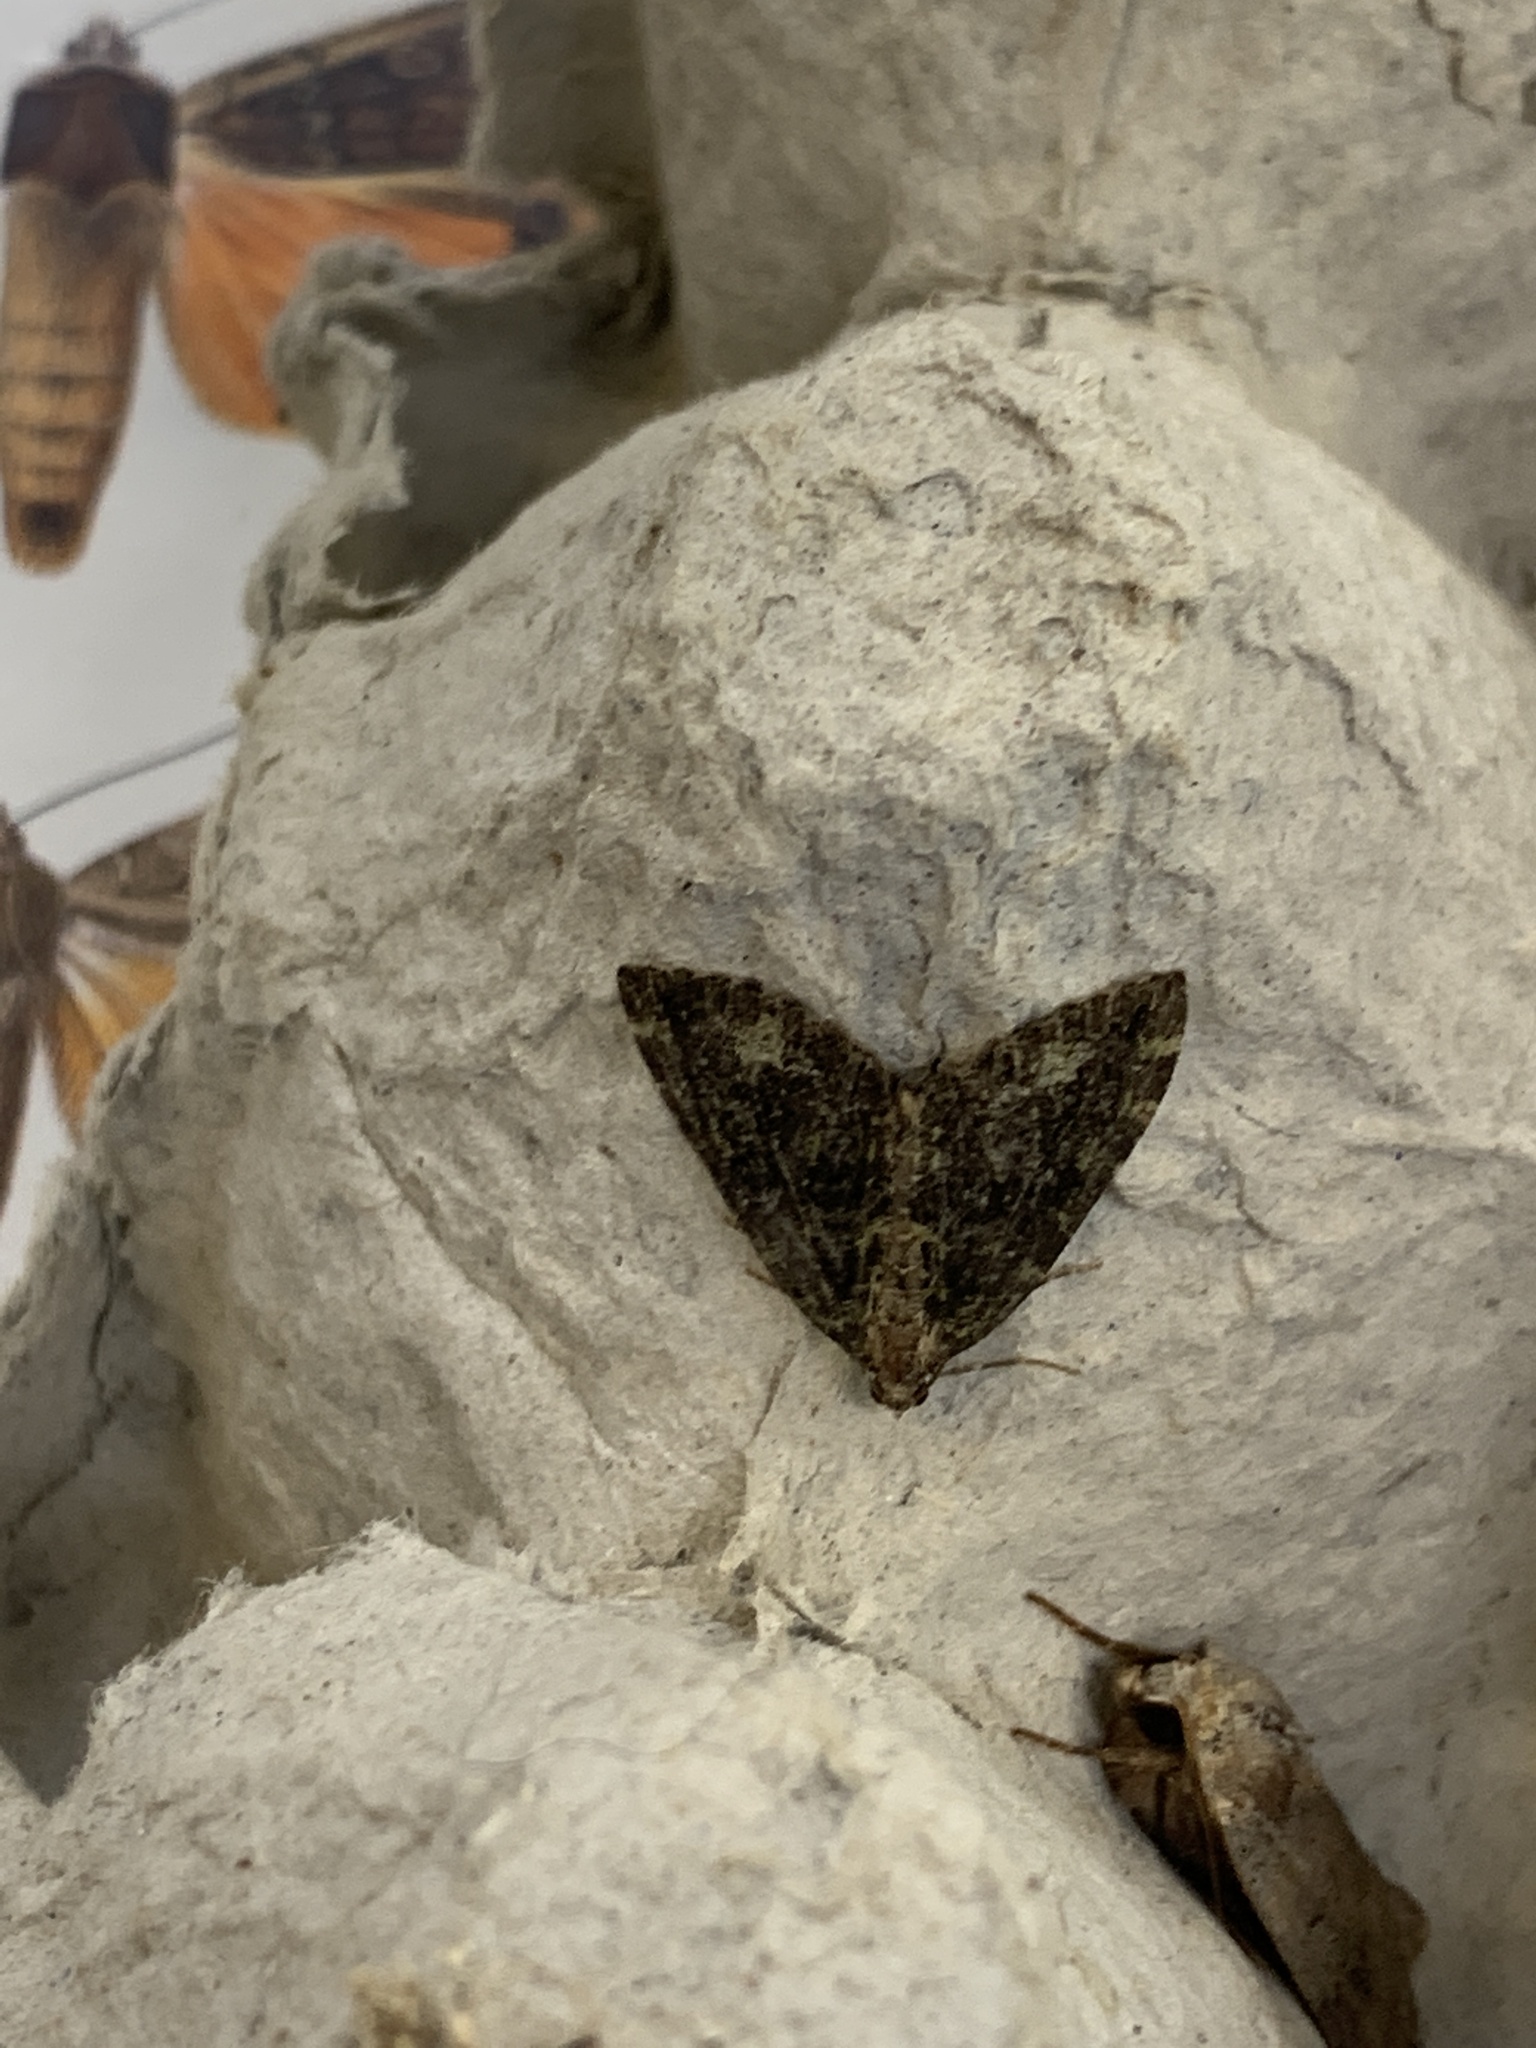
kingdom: Animalia
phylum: Arthropoda
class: Insecta
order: Lepidoptera
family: Geometridae
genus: Hydriomena
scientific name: Hydriomena furcata
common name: July highflyer
